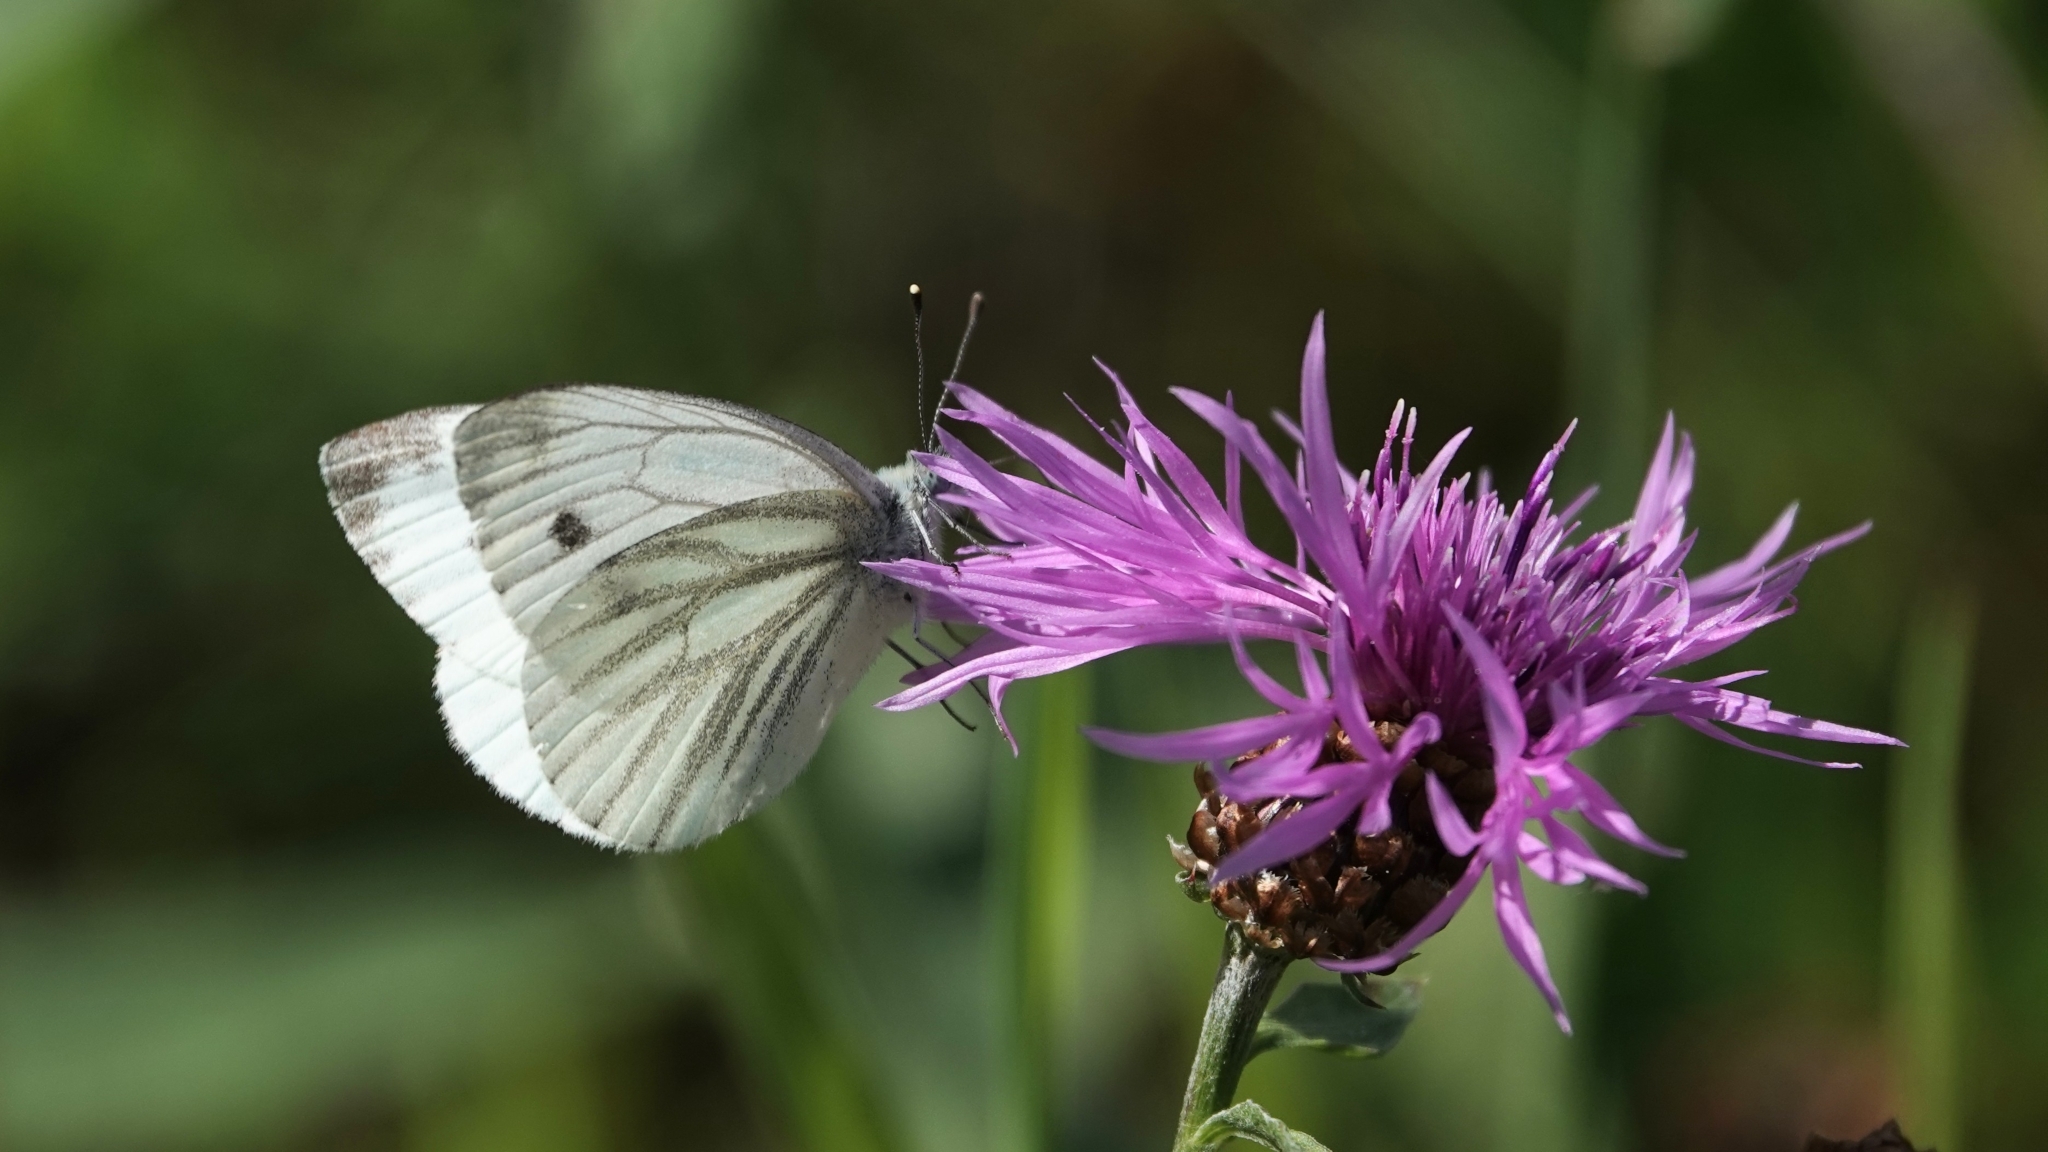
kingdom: Animalia
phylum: Arthropoda
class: Insecta
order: Lepidoptera
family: Pieridae
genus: Pieris
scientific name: Pieris napi
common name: Green-veined white
